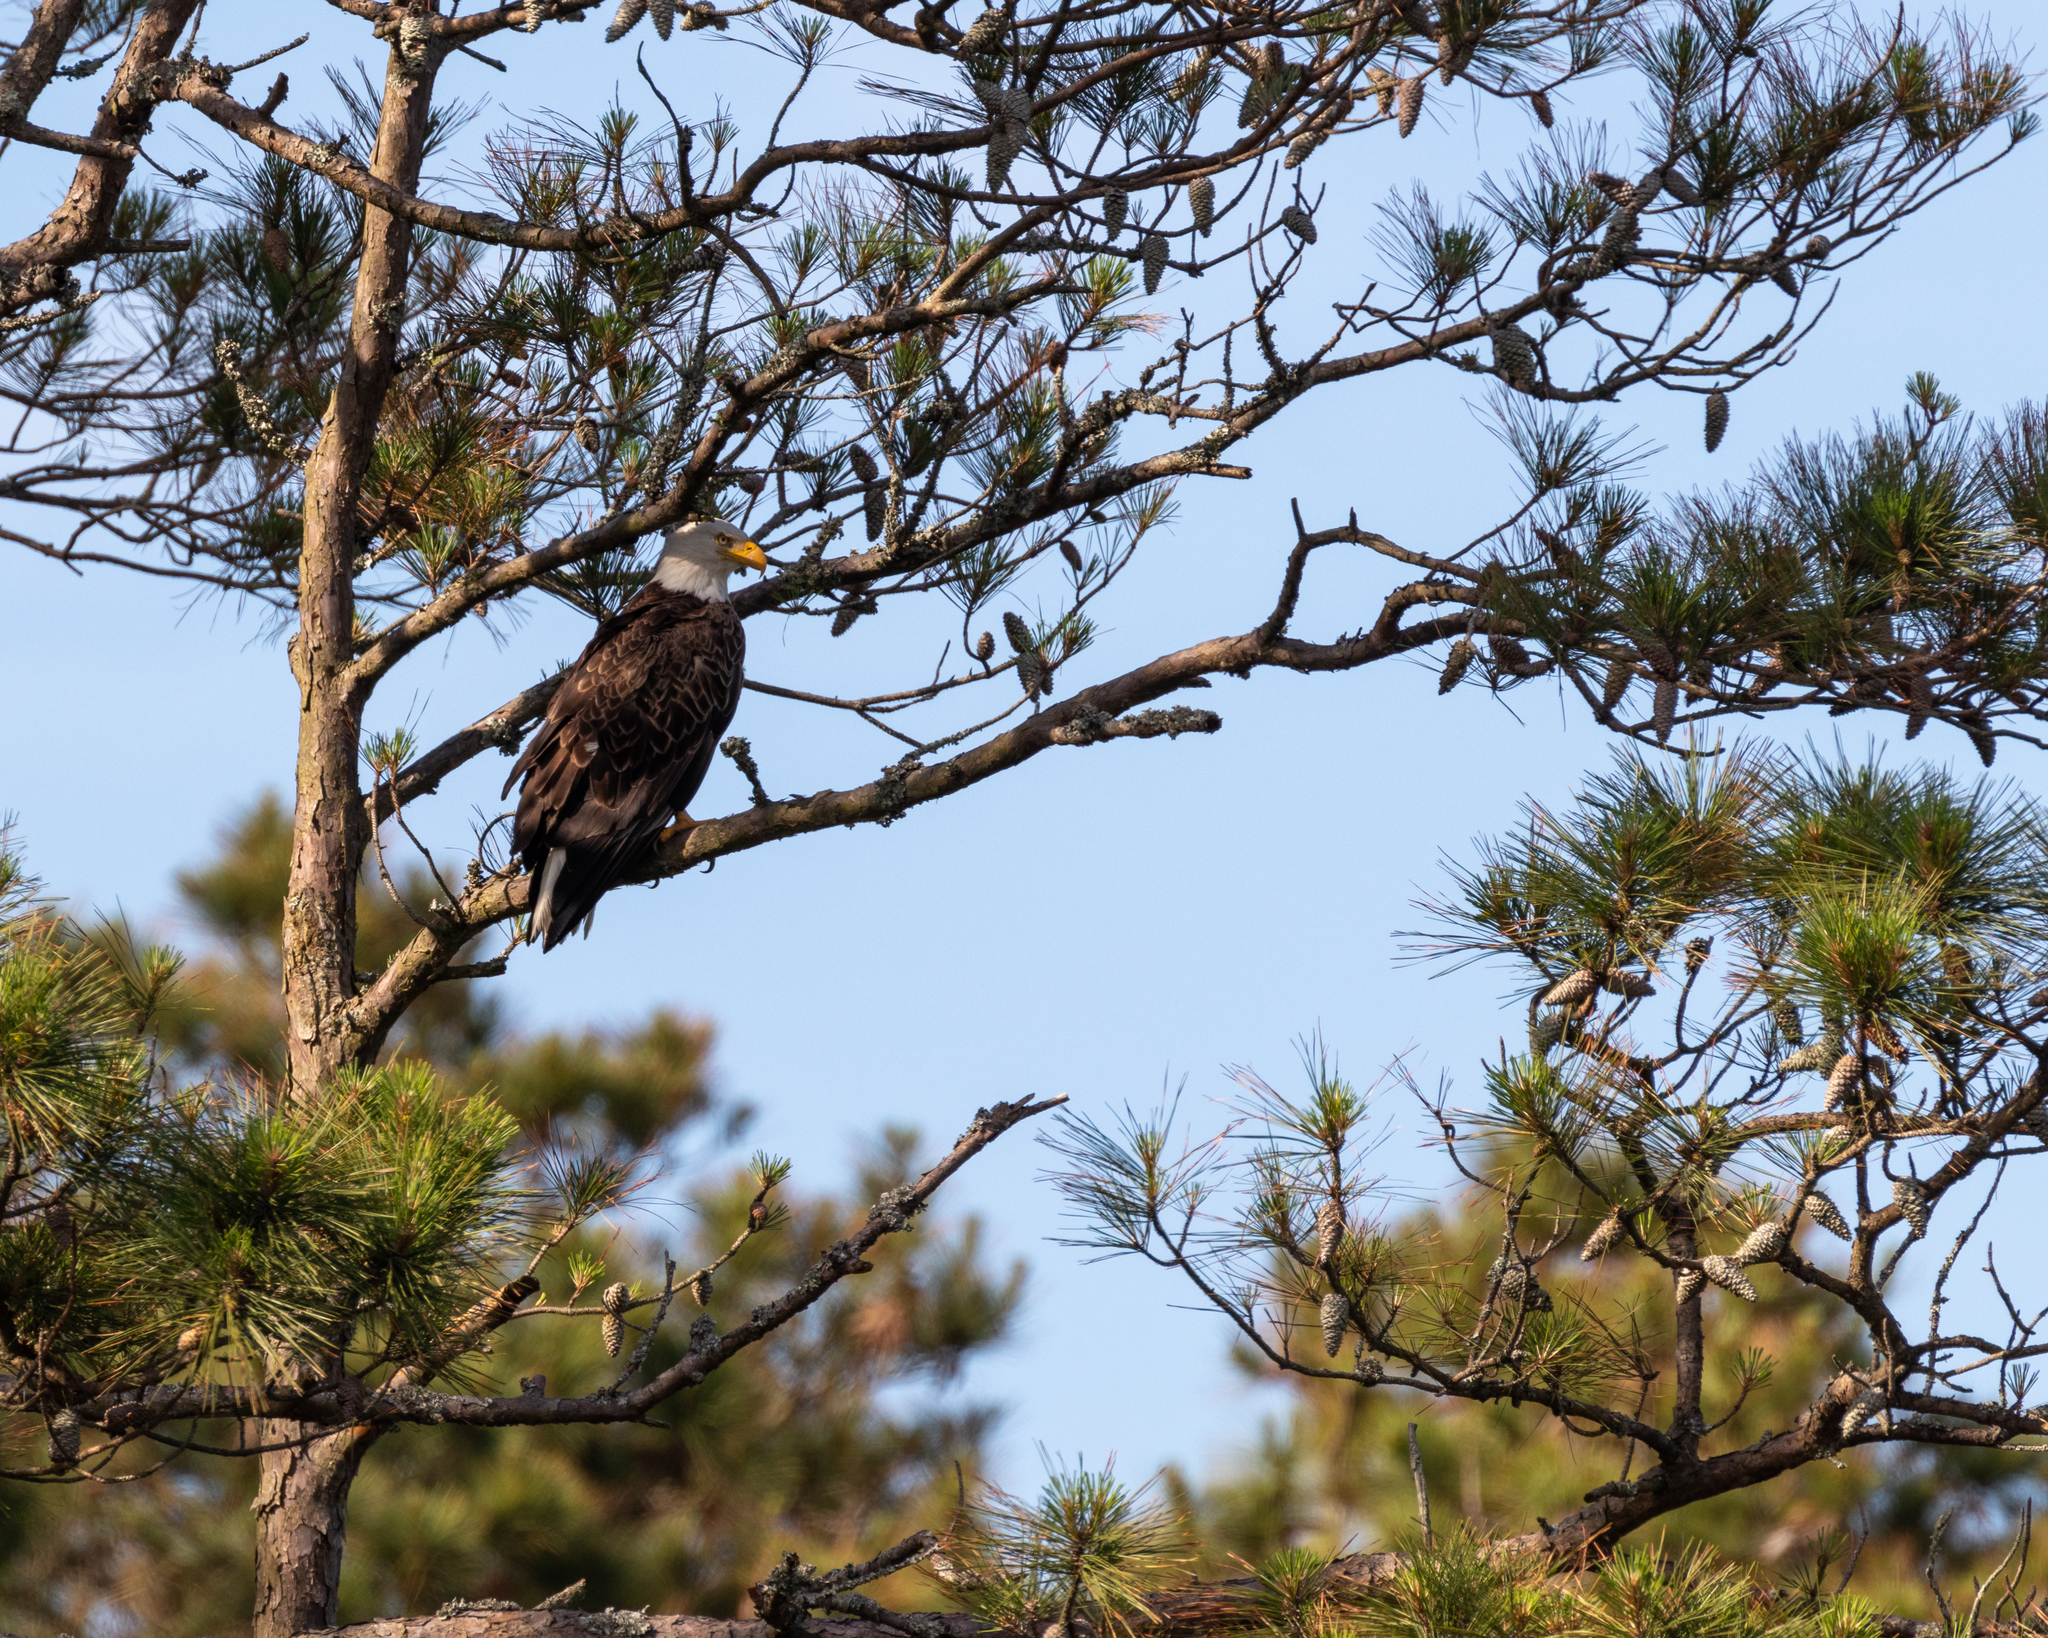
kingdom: Animalia
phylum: Chordata
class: Aves
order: Accipitriformes
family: Accipitridae
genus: Haliaeetus
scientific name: Haliaeetus leucocephalus
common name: Bald eagle
